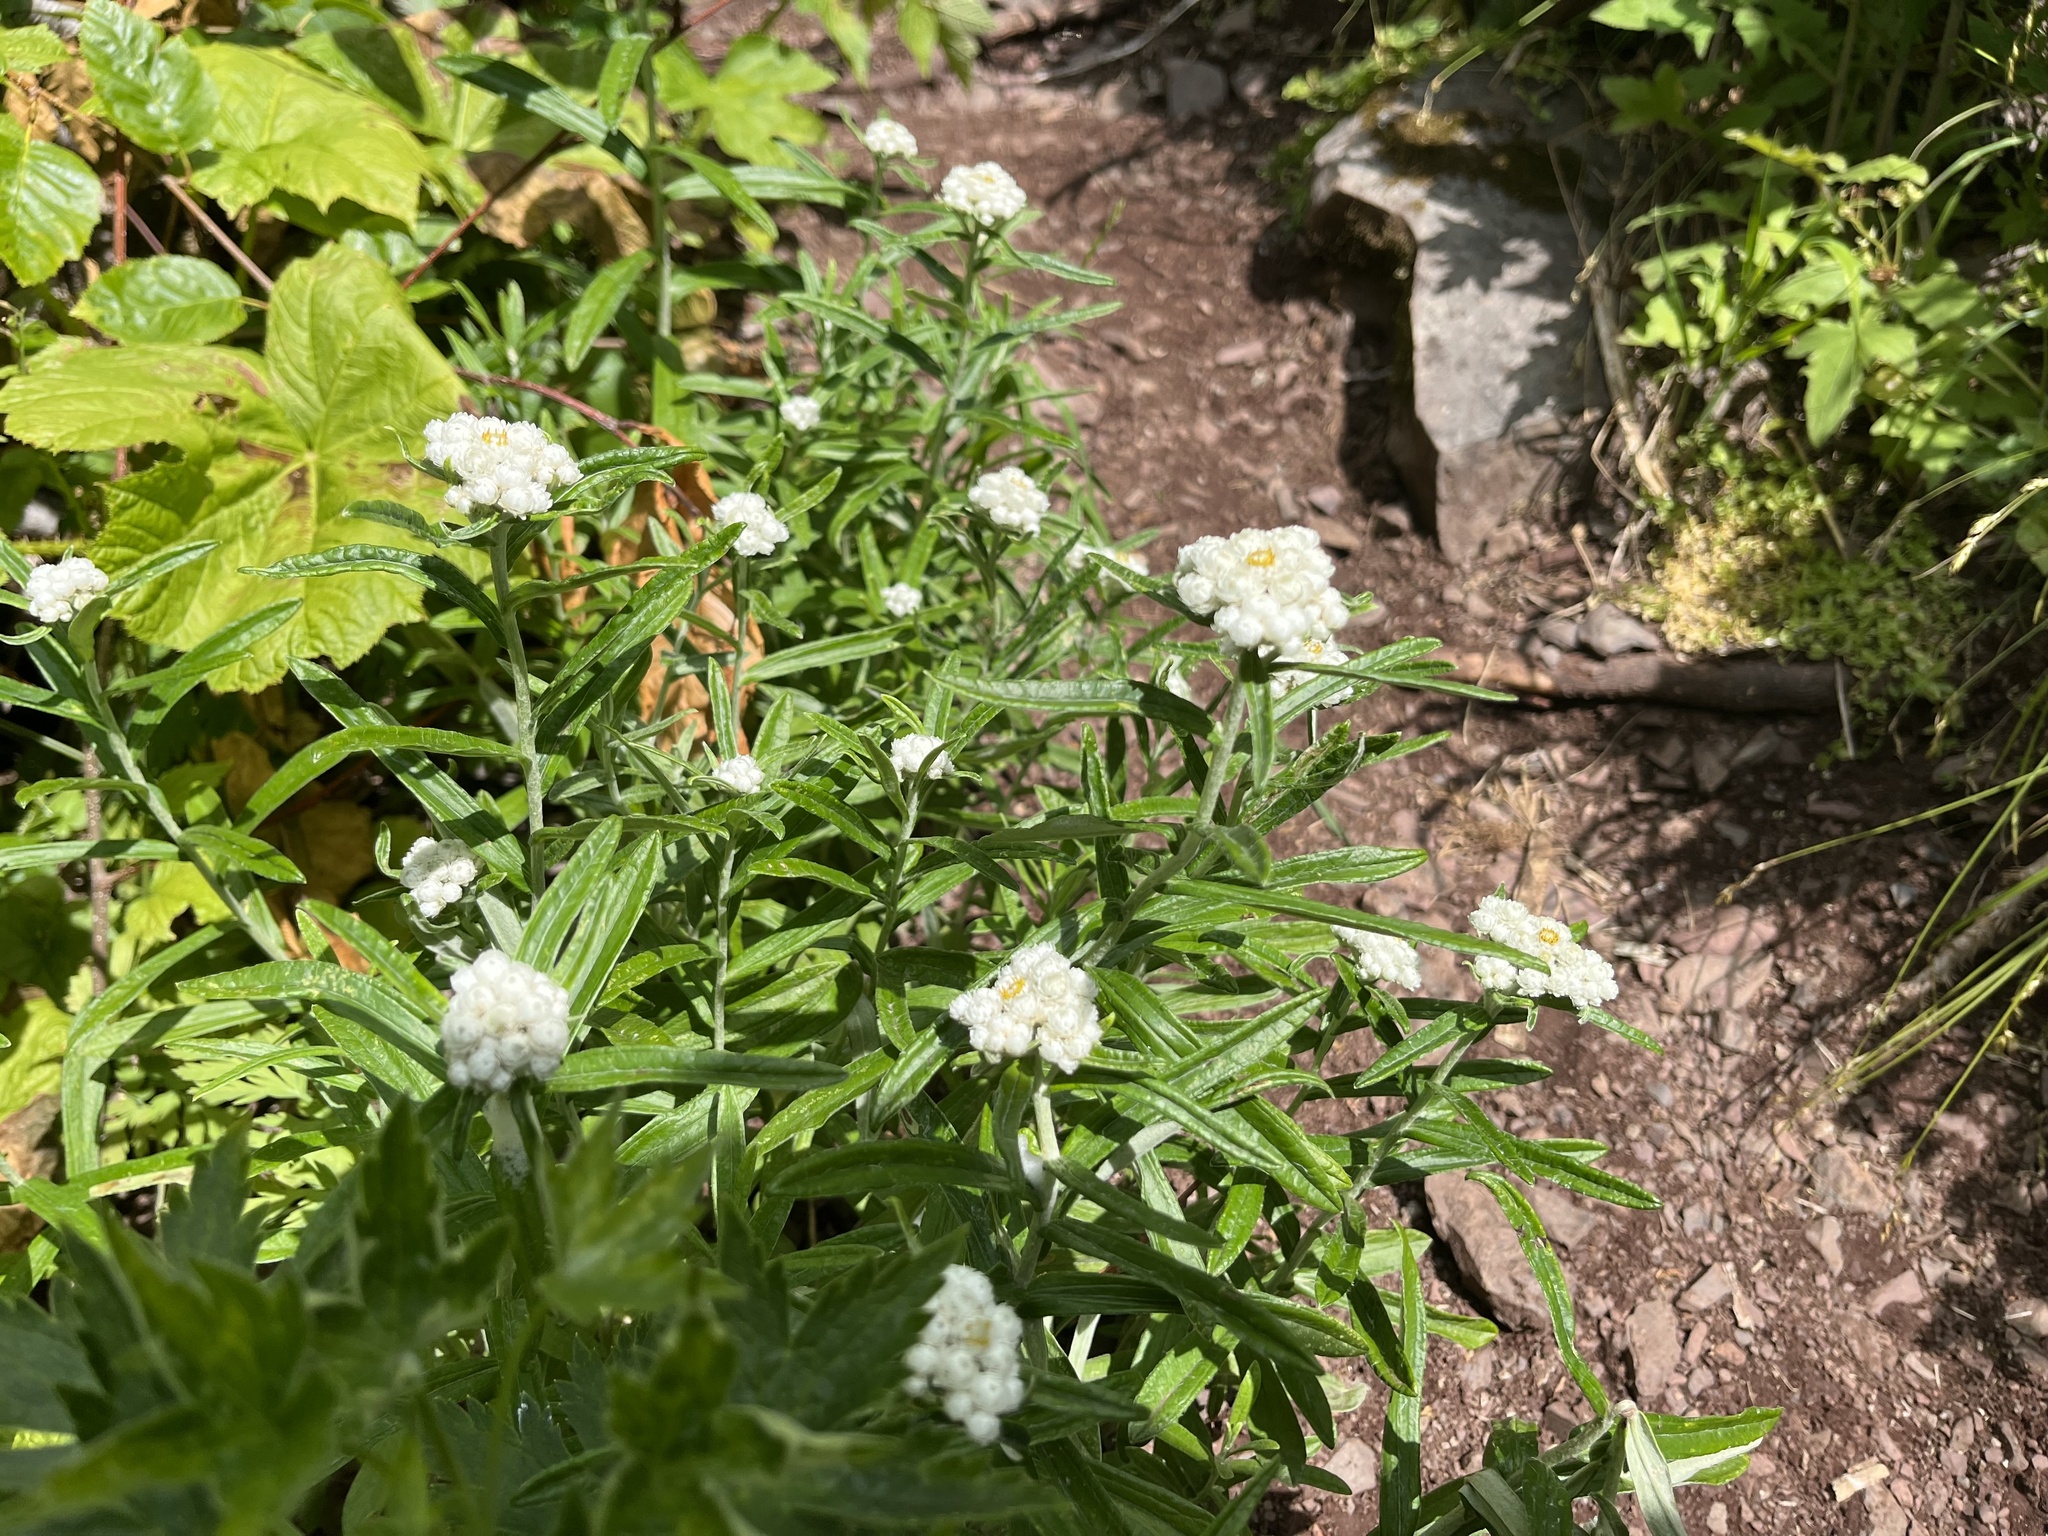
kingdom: Plantae
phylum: Tracheophyta
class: Magnoliopsida
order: Asterales
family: Asteraceae
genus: Anaphalis
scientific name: Anaphalis margaritacea
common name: Pearly everlasting
